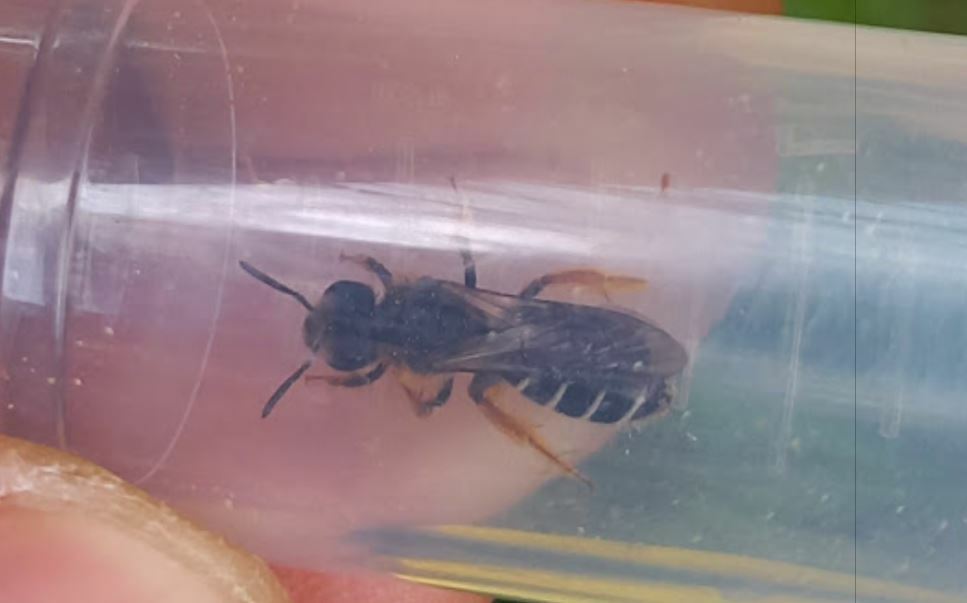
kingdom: Animalia
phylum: Arthropoda
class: Insecta
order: Hymenoptera
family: Halictidae
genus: Halictus
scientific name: Halictus rubicundus
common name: Orange-legged furrow bee
